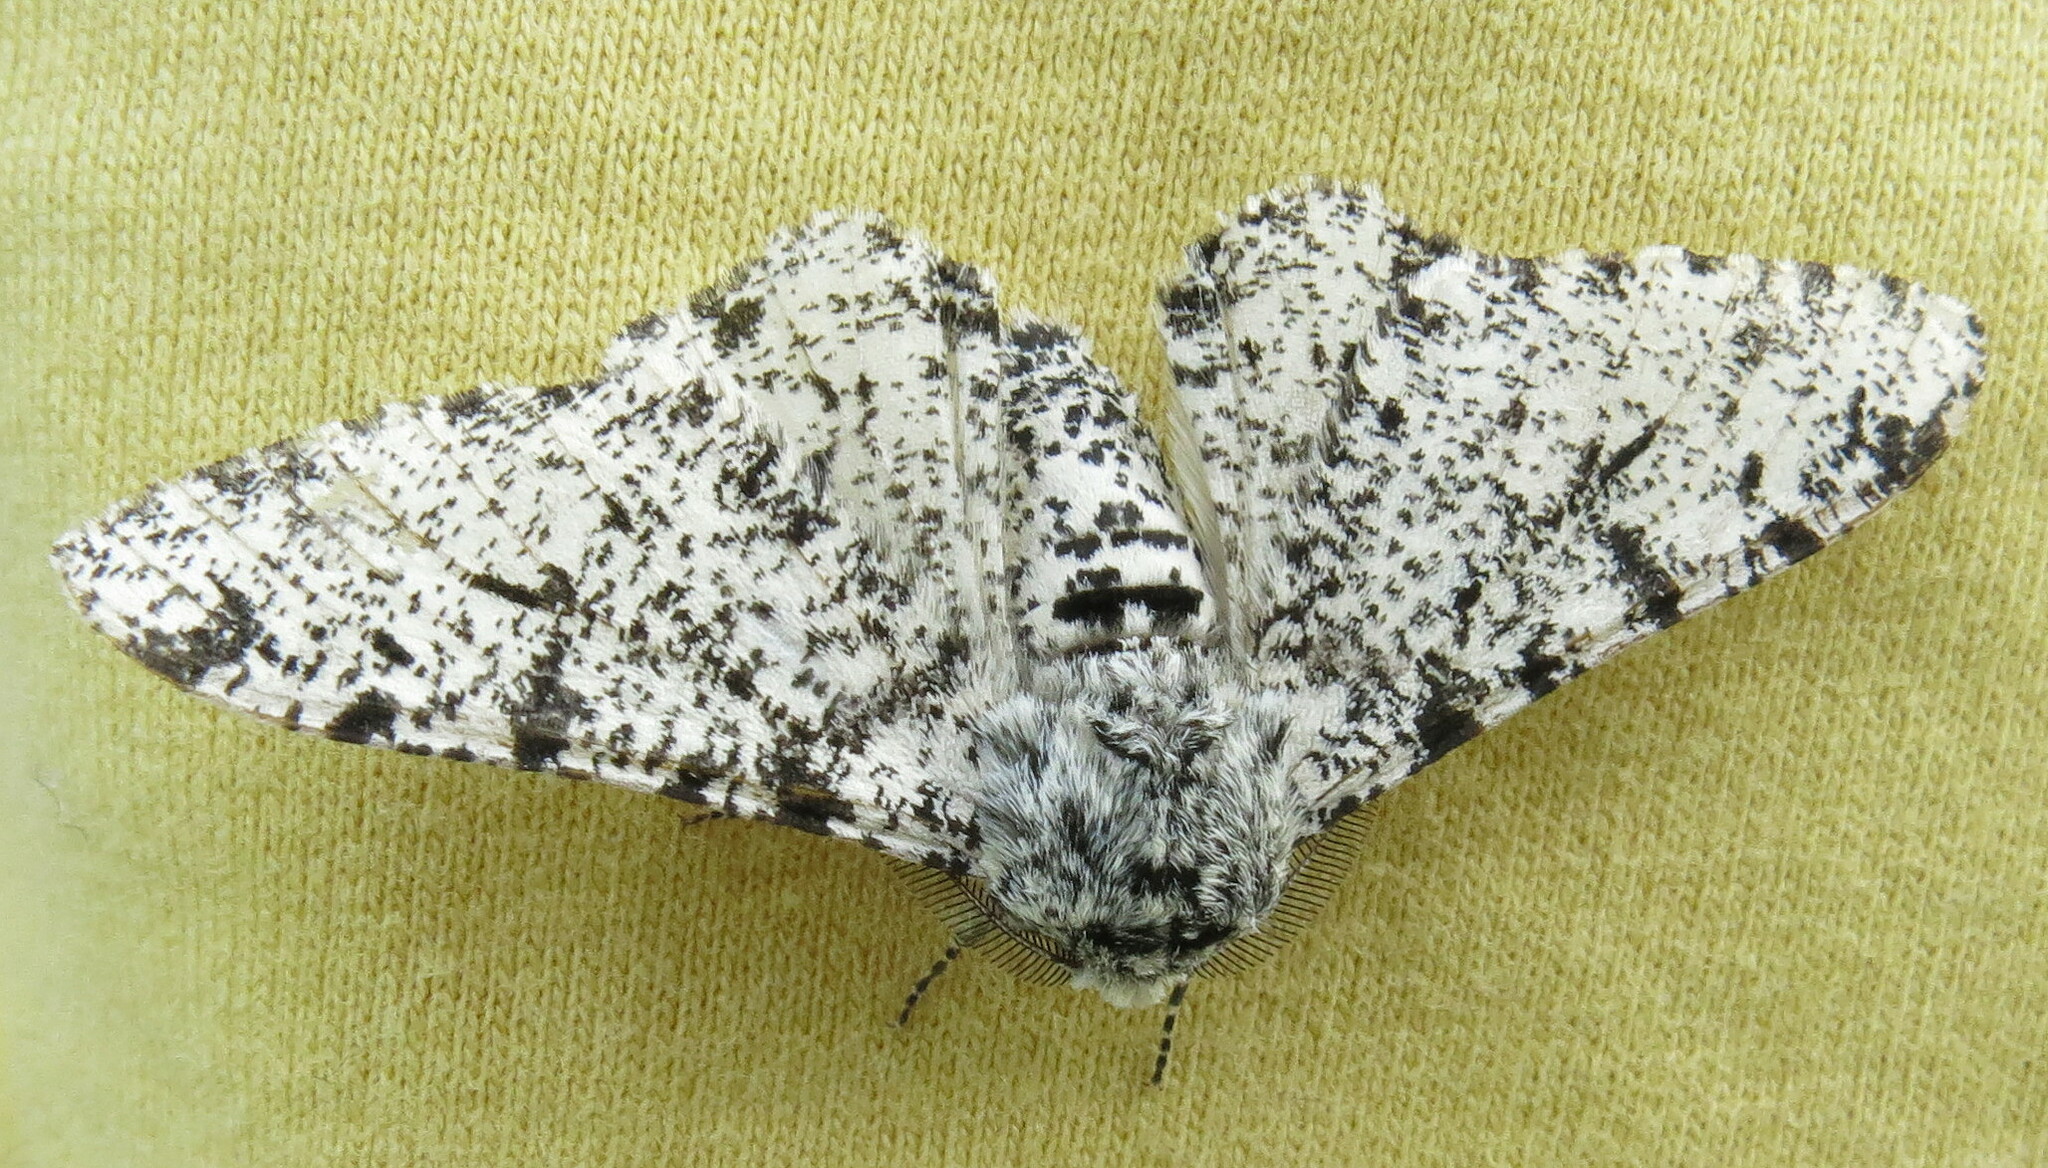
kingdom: Animalia
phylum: Arthropoda
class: Insecta
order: Lepidoptera
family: Geometridae
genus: Biston
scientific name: Biston betularia
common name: Peppered moth
